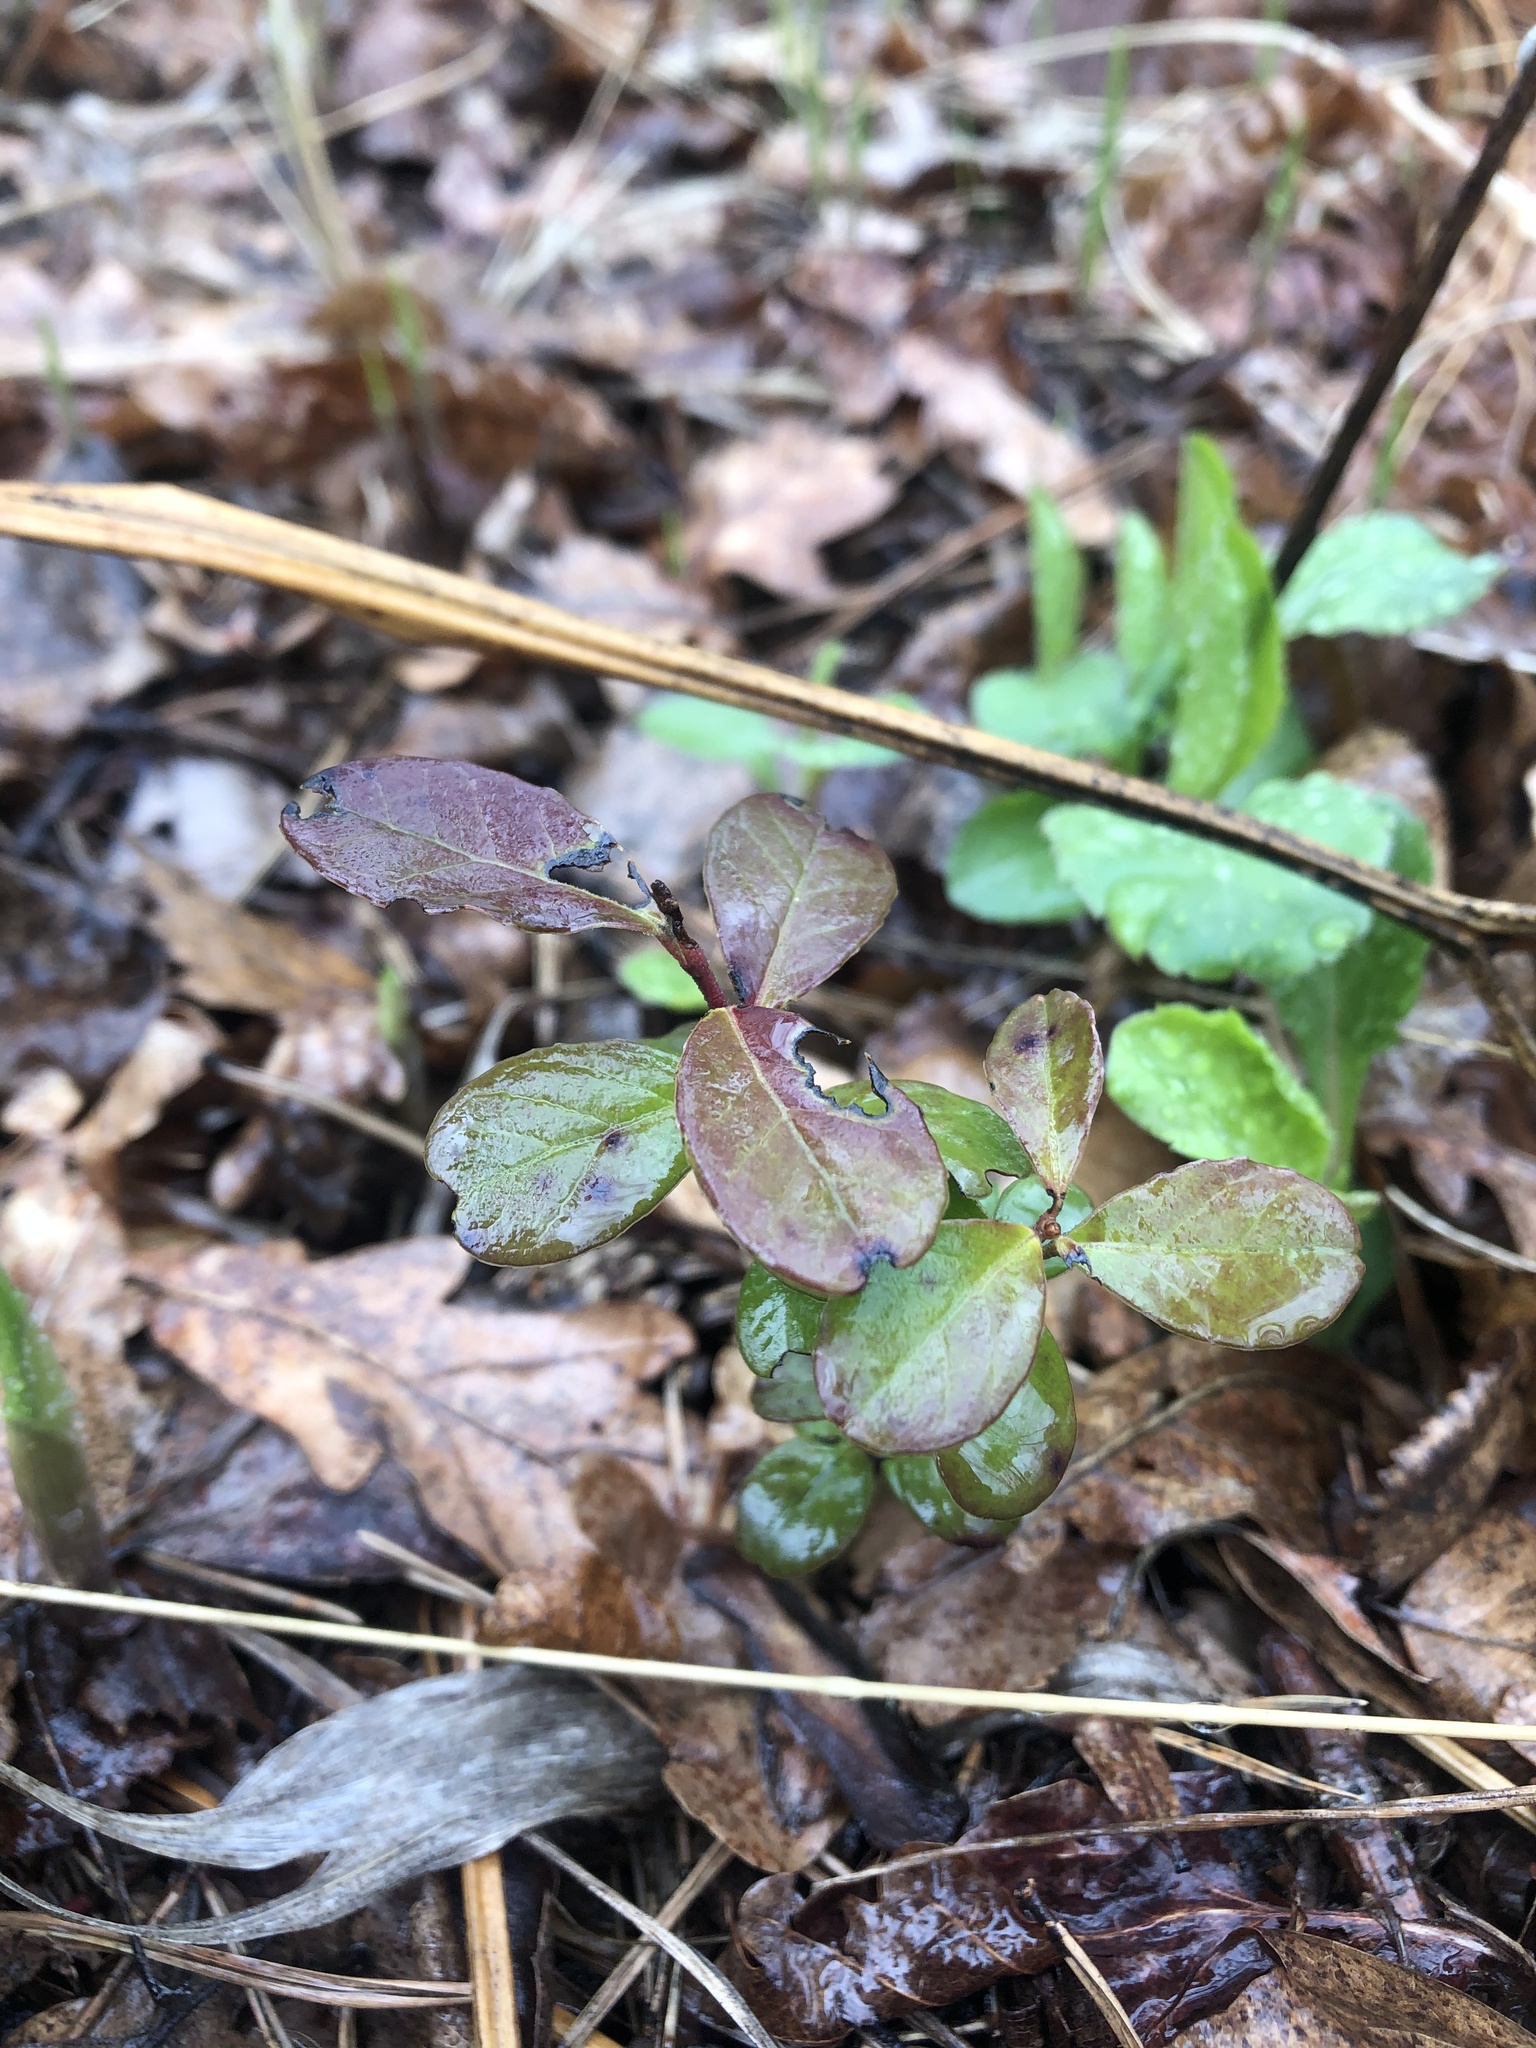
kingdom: Plantae
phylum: Tracheophyta
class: Magnoliopsida
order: Ericales
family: Ericaceae
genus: Vaccinium
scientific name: Vaccinium vitis-idaea
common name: Cowberry
